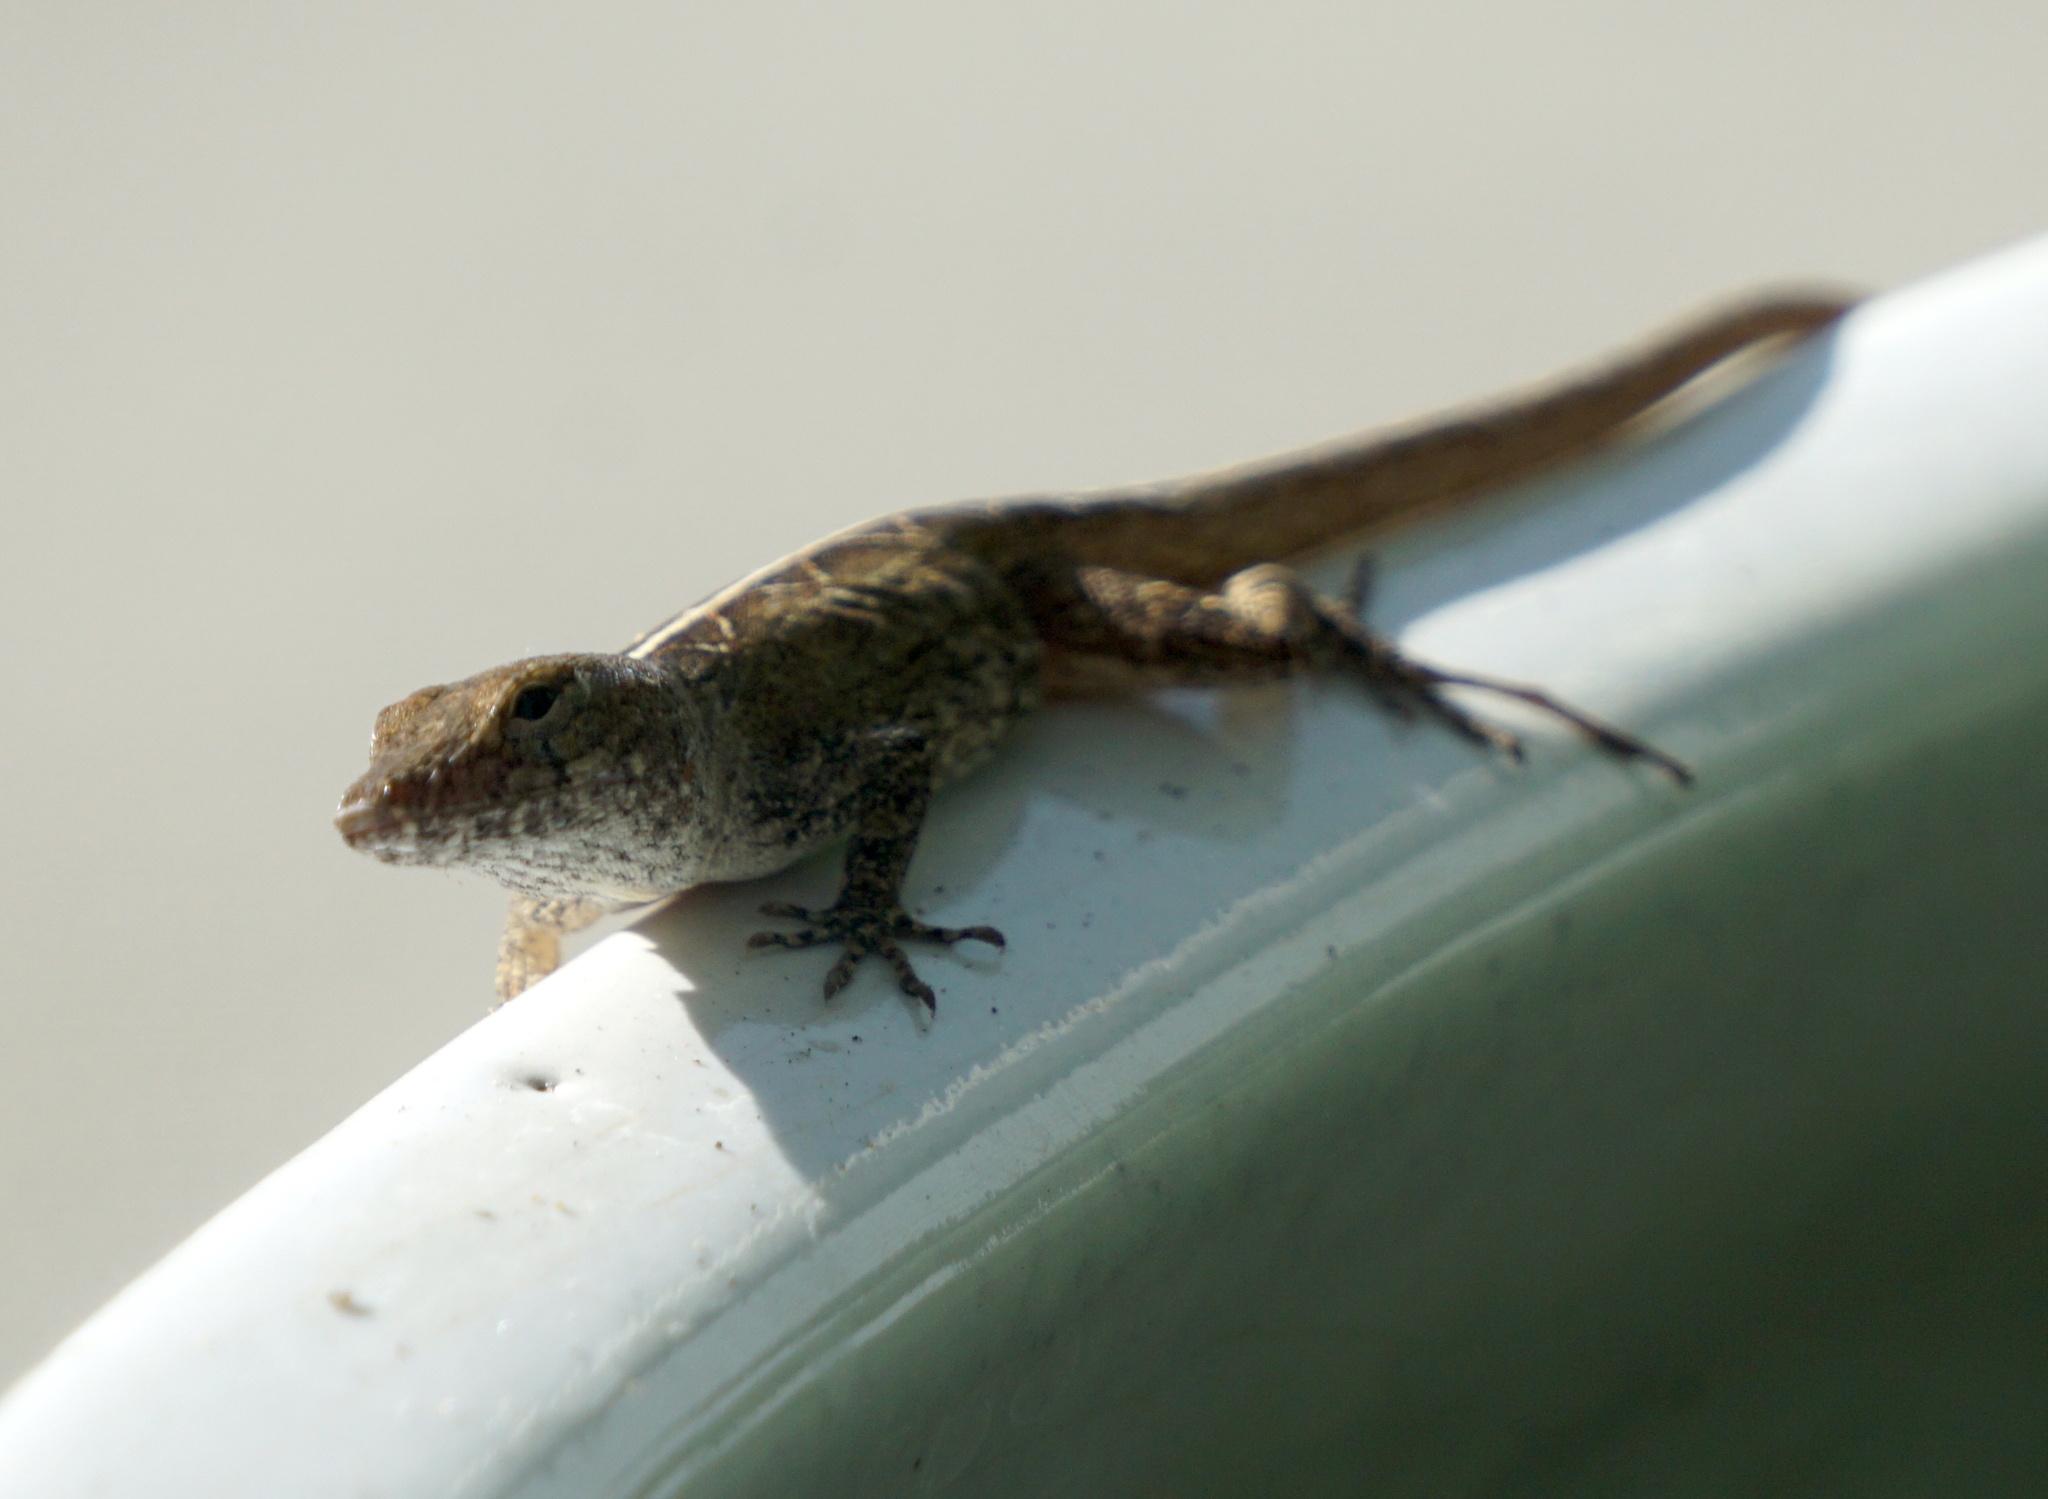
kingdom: Animalia
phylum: Chordata
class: Squamata
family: Dactyloidae
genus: Anolis
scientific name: Anolis sagrei
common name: Brown anole
